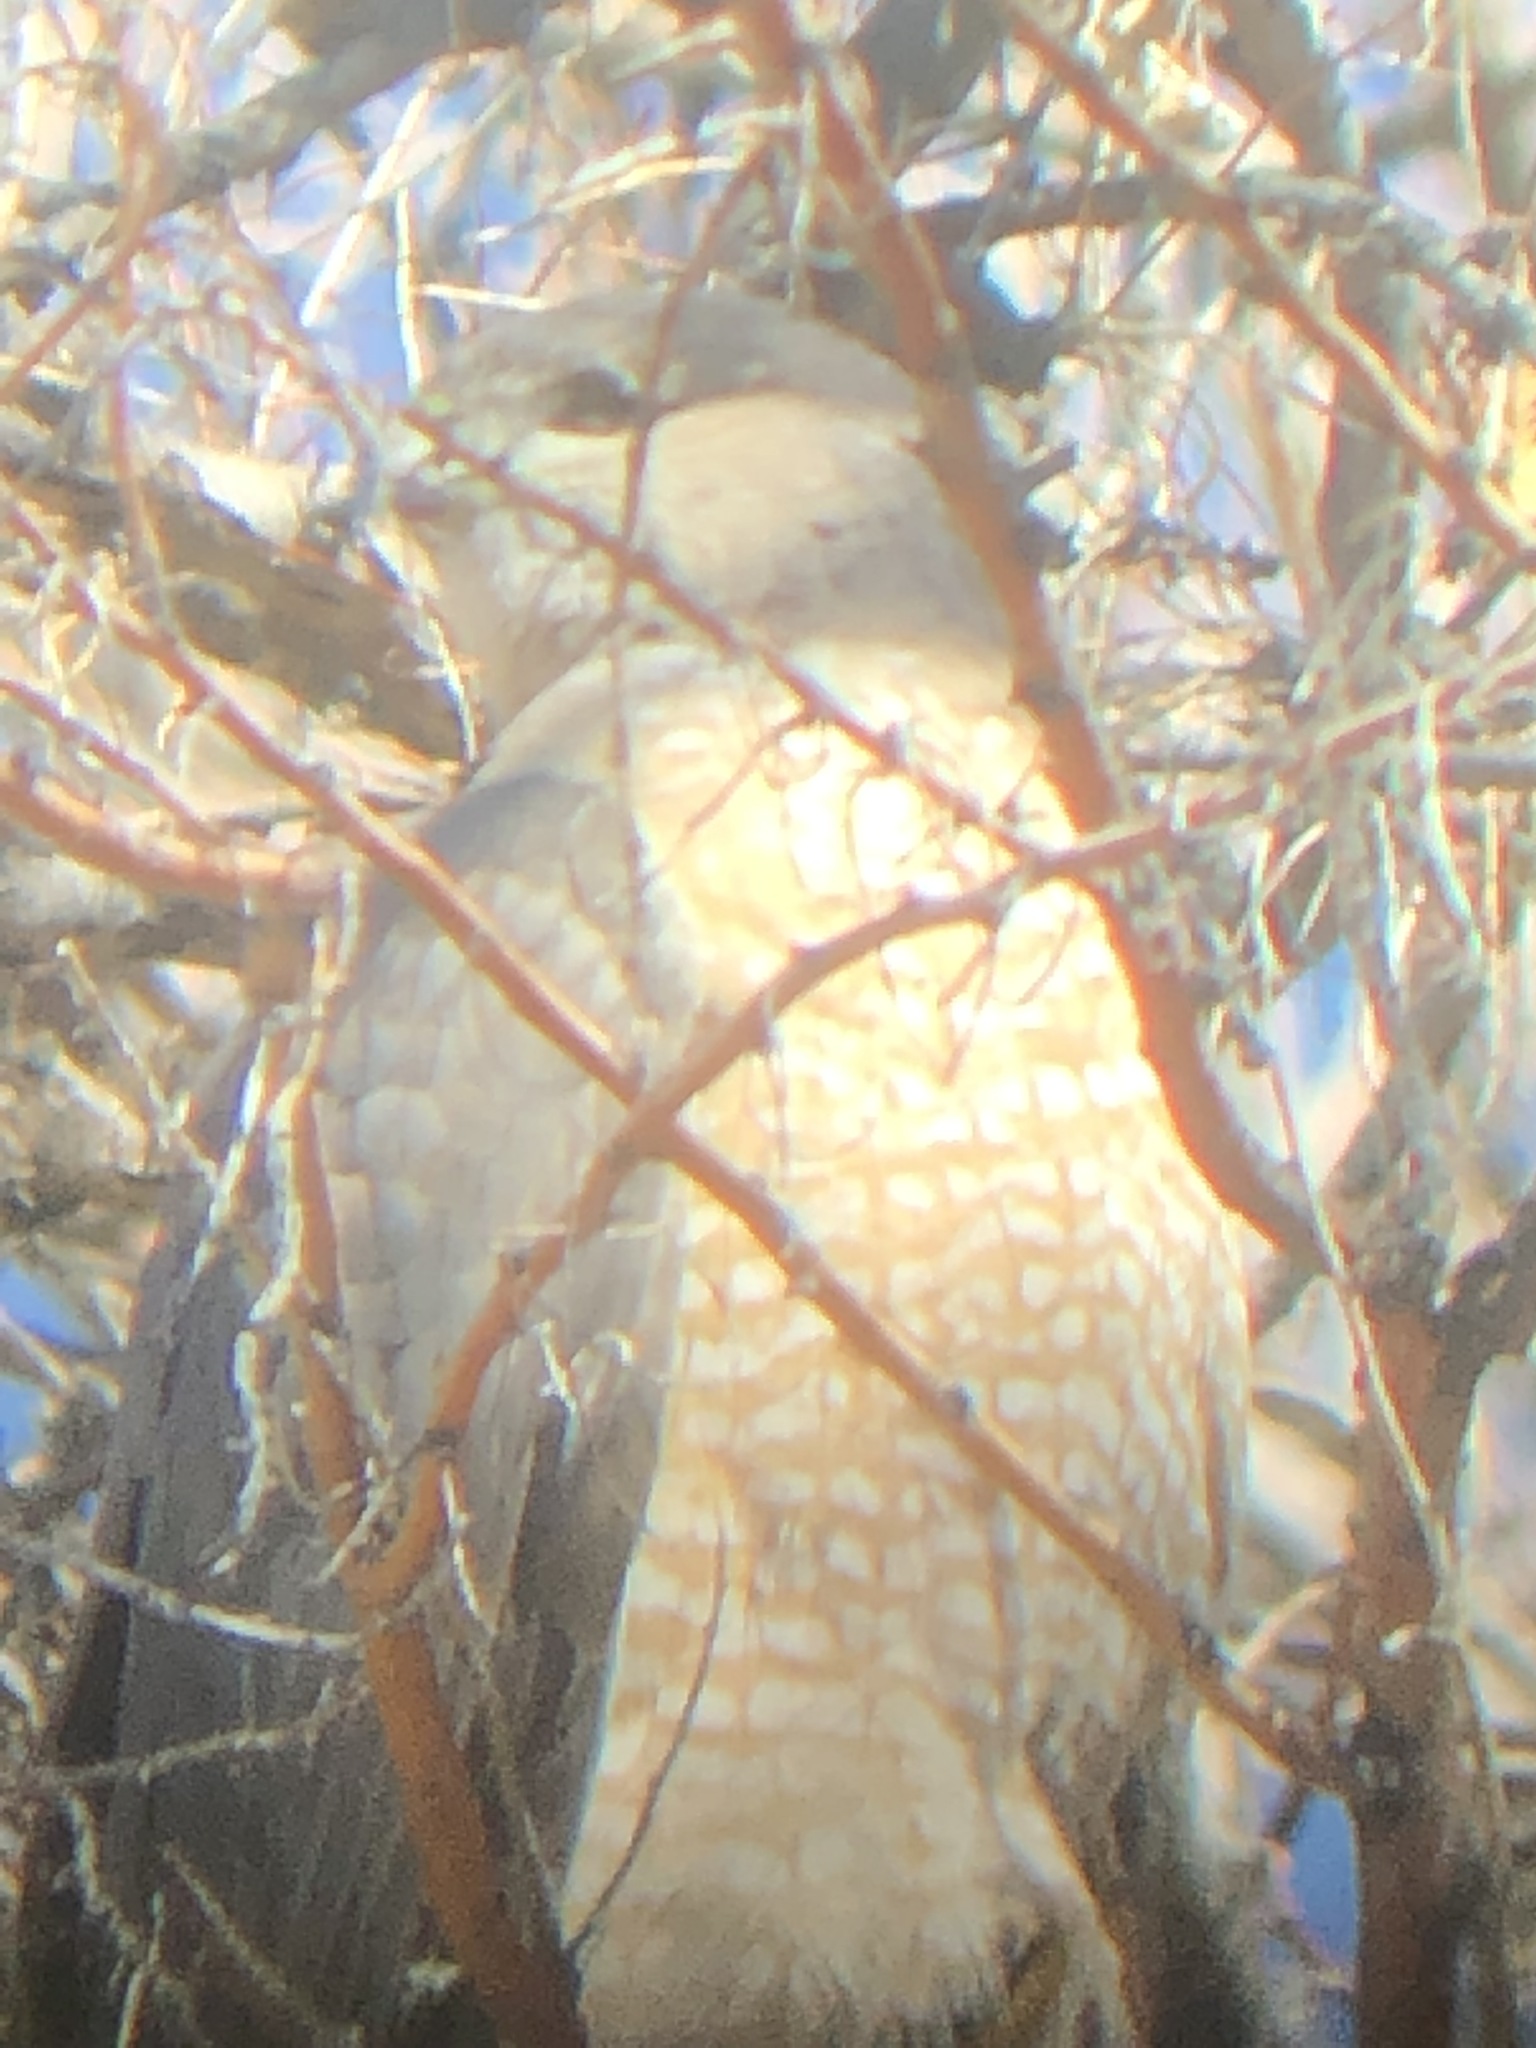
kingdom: Animalia
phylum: Chordata
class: Aves
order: Accipitriformes
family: Accipitridae
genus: Accipiter
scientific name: Accipiter cooperii
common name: Cooper's hawk
